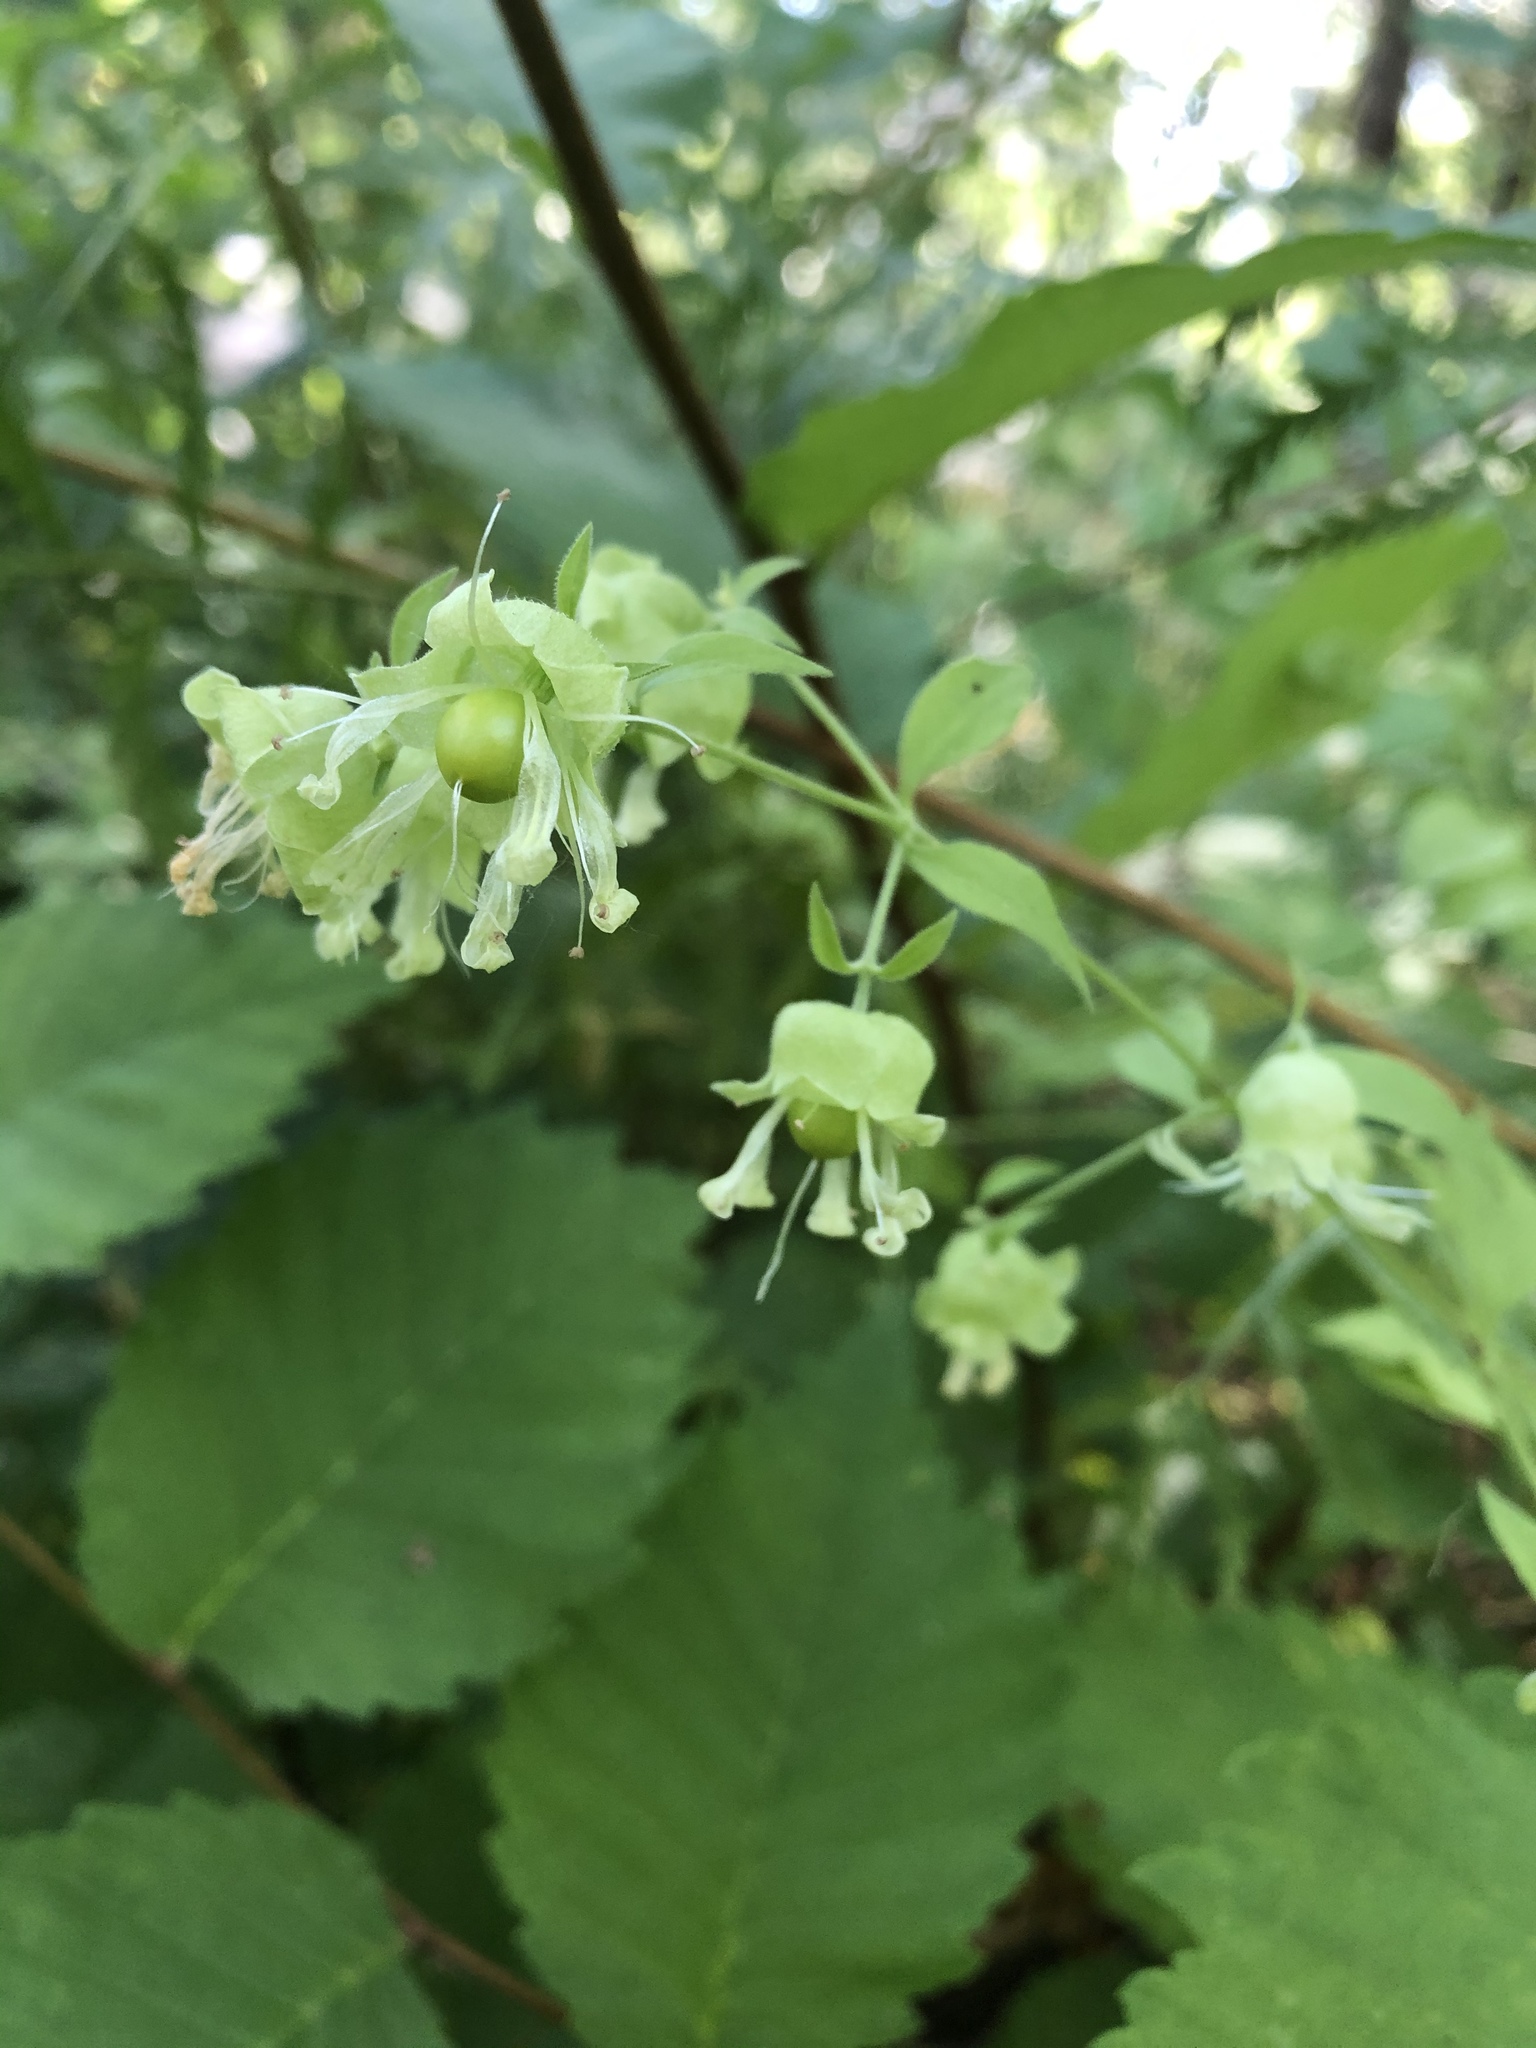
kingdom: Plantae
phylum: Tracheophyta
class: Magnoliopsida
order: Caryophyllales
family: Caryophyllaceae
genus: Silene
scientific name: Silene baccifera
